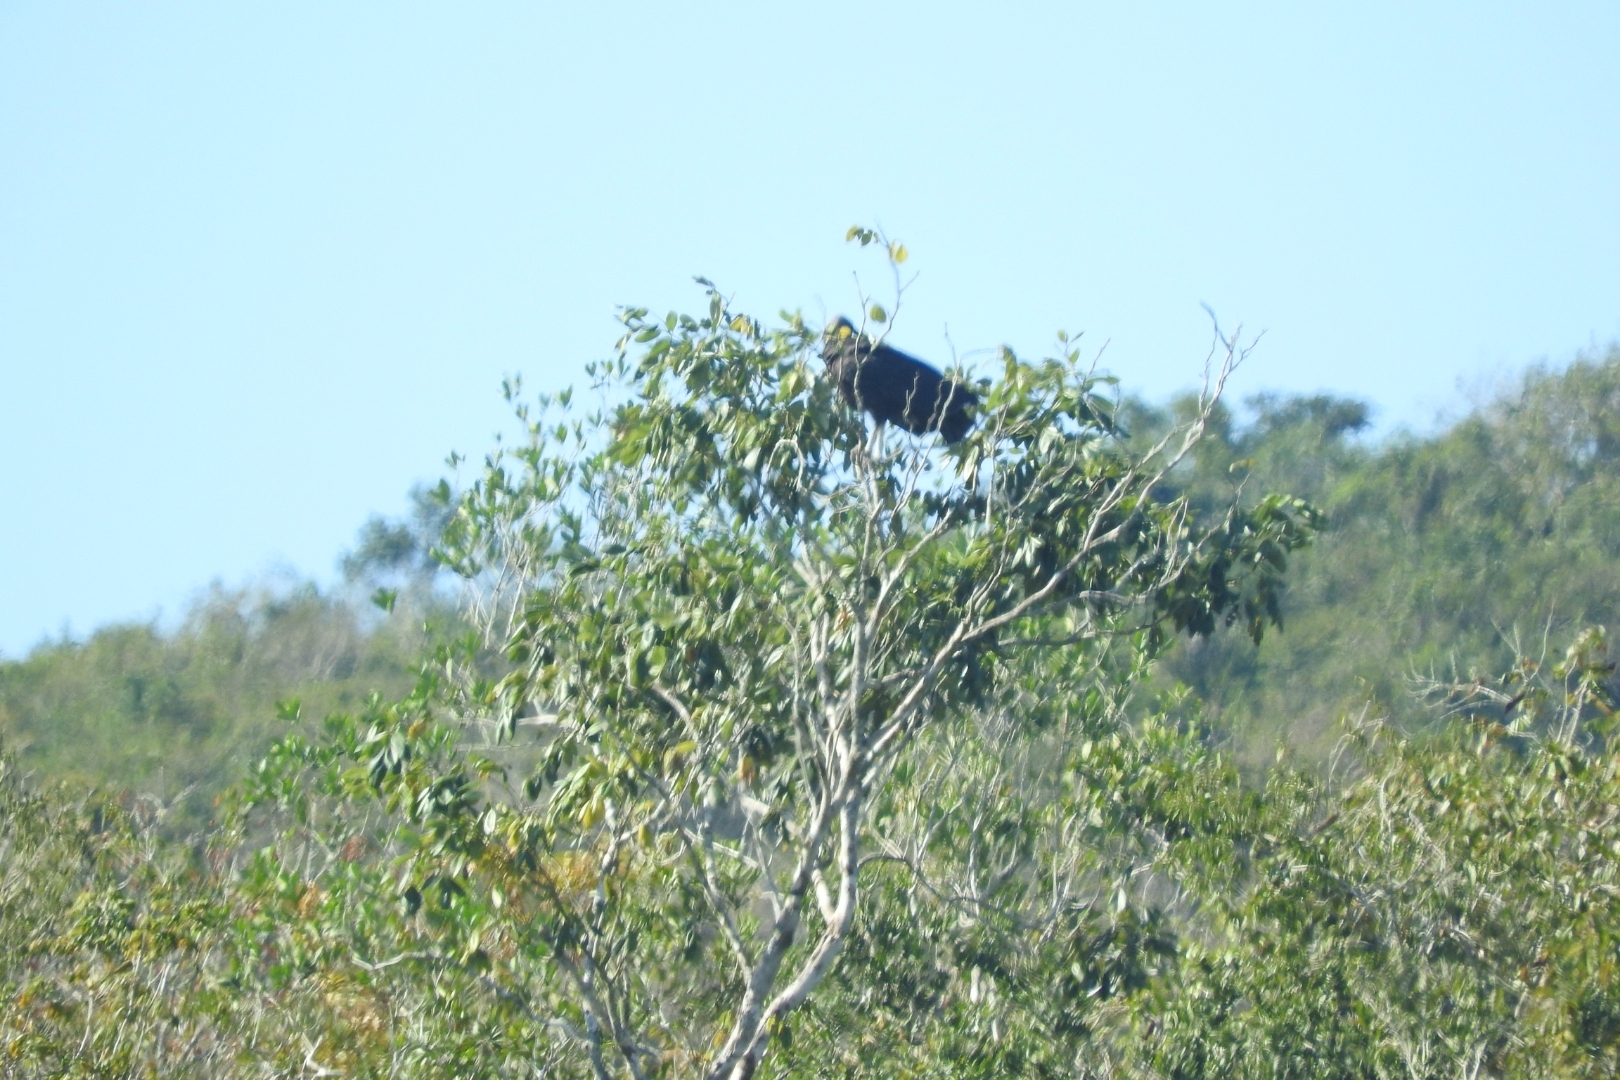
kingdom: Animalia
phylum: Chordata
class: Aves
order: Accipitriformes
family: Cathartidae
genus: Coragyps
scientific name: Coragyps atratus
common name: Black vulture
